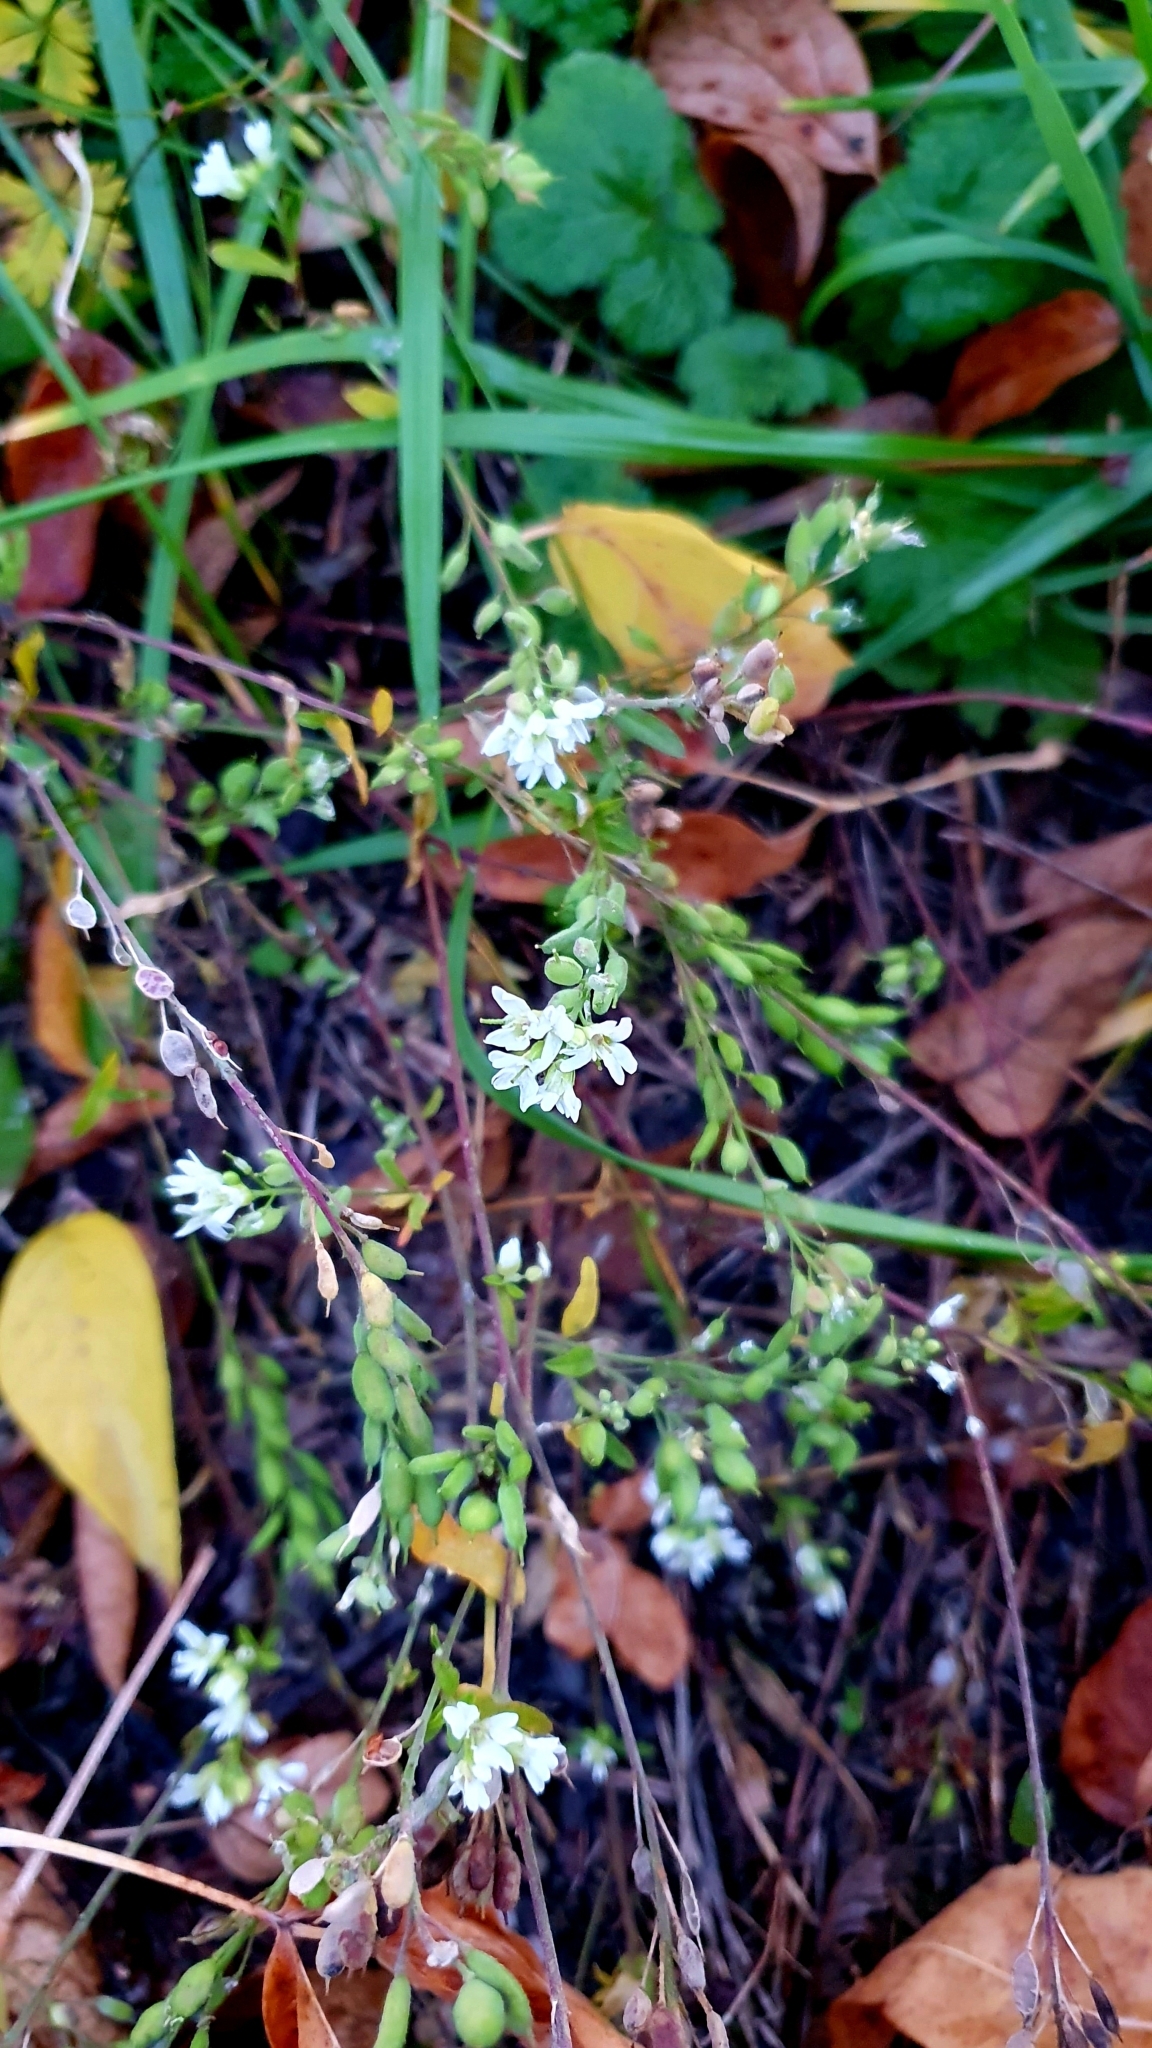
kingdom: Plantae
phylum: Tracheophyta
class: Magnoliopsida
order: Brassicales
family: Brassicaceae
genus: Berteroa
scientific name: Berteroa incana
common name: Hoary alison
